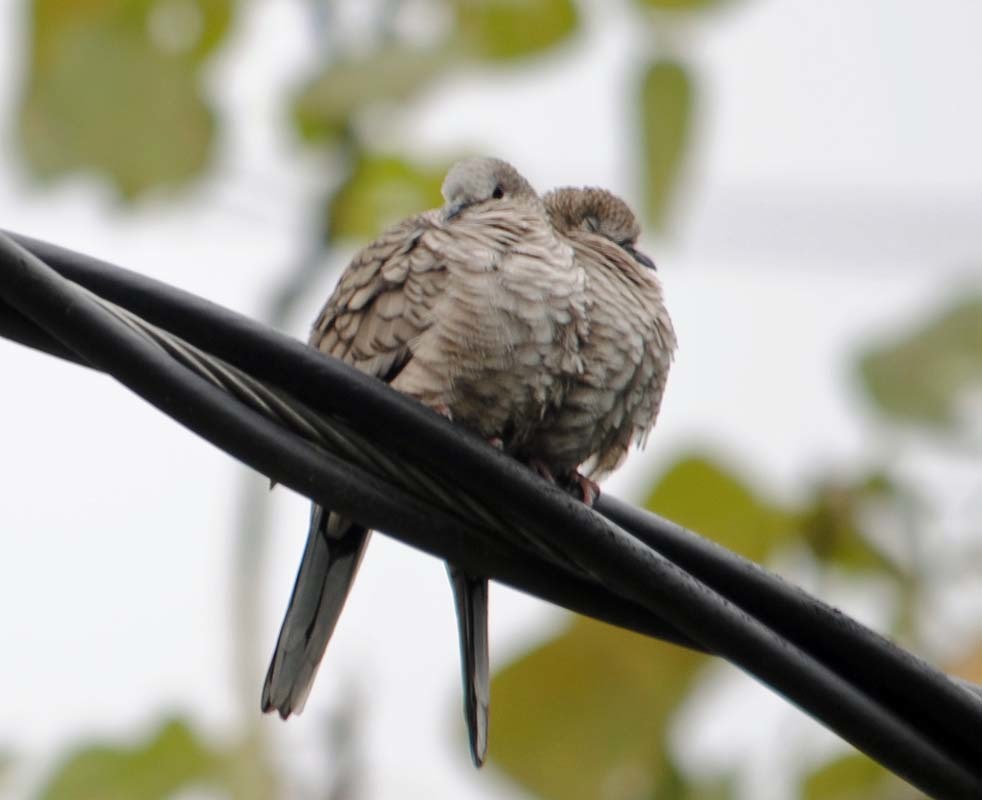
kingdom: Animalia
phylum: Chordata
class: Aves
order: Columbiformes
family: Columbidae
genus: Columbina
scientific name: Columbina inca
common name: Inca dove
